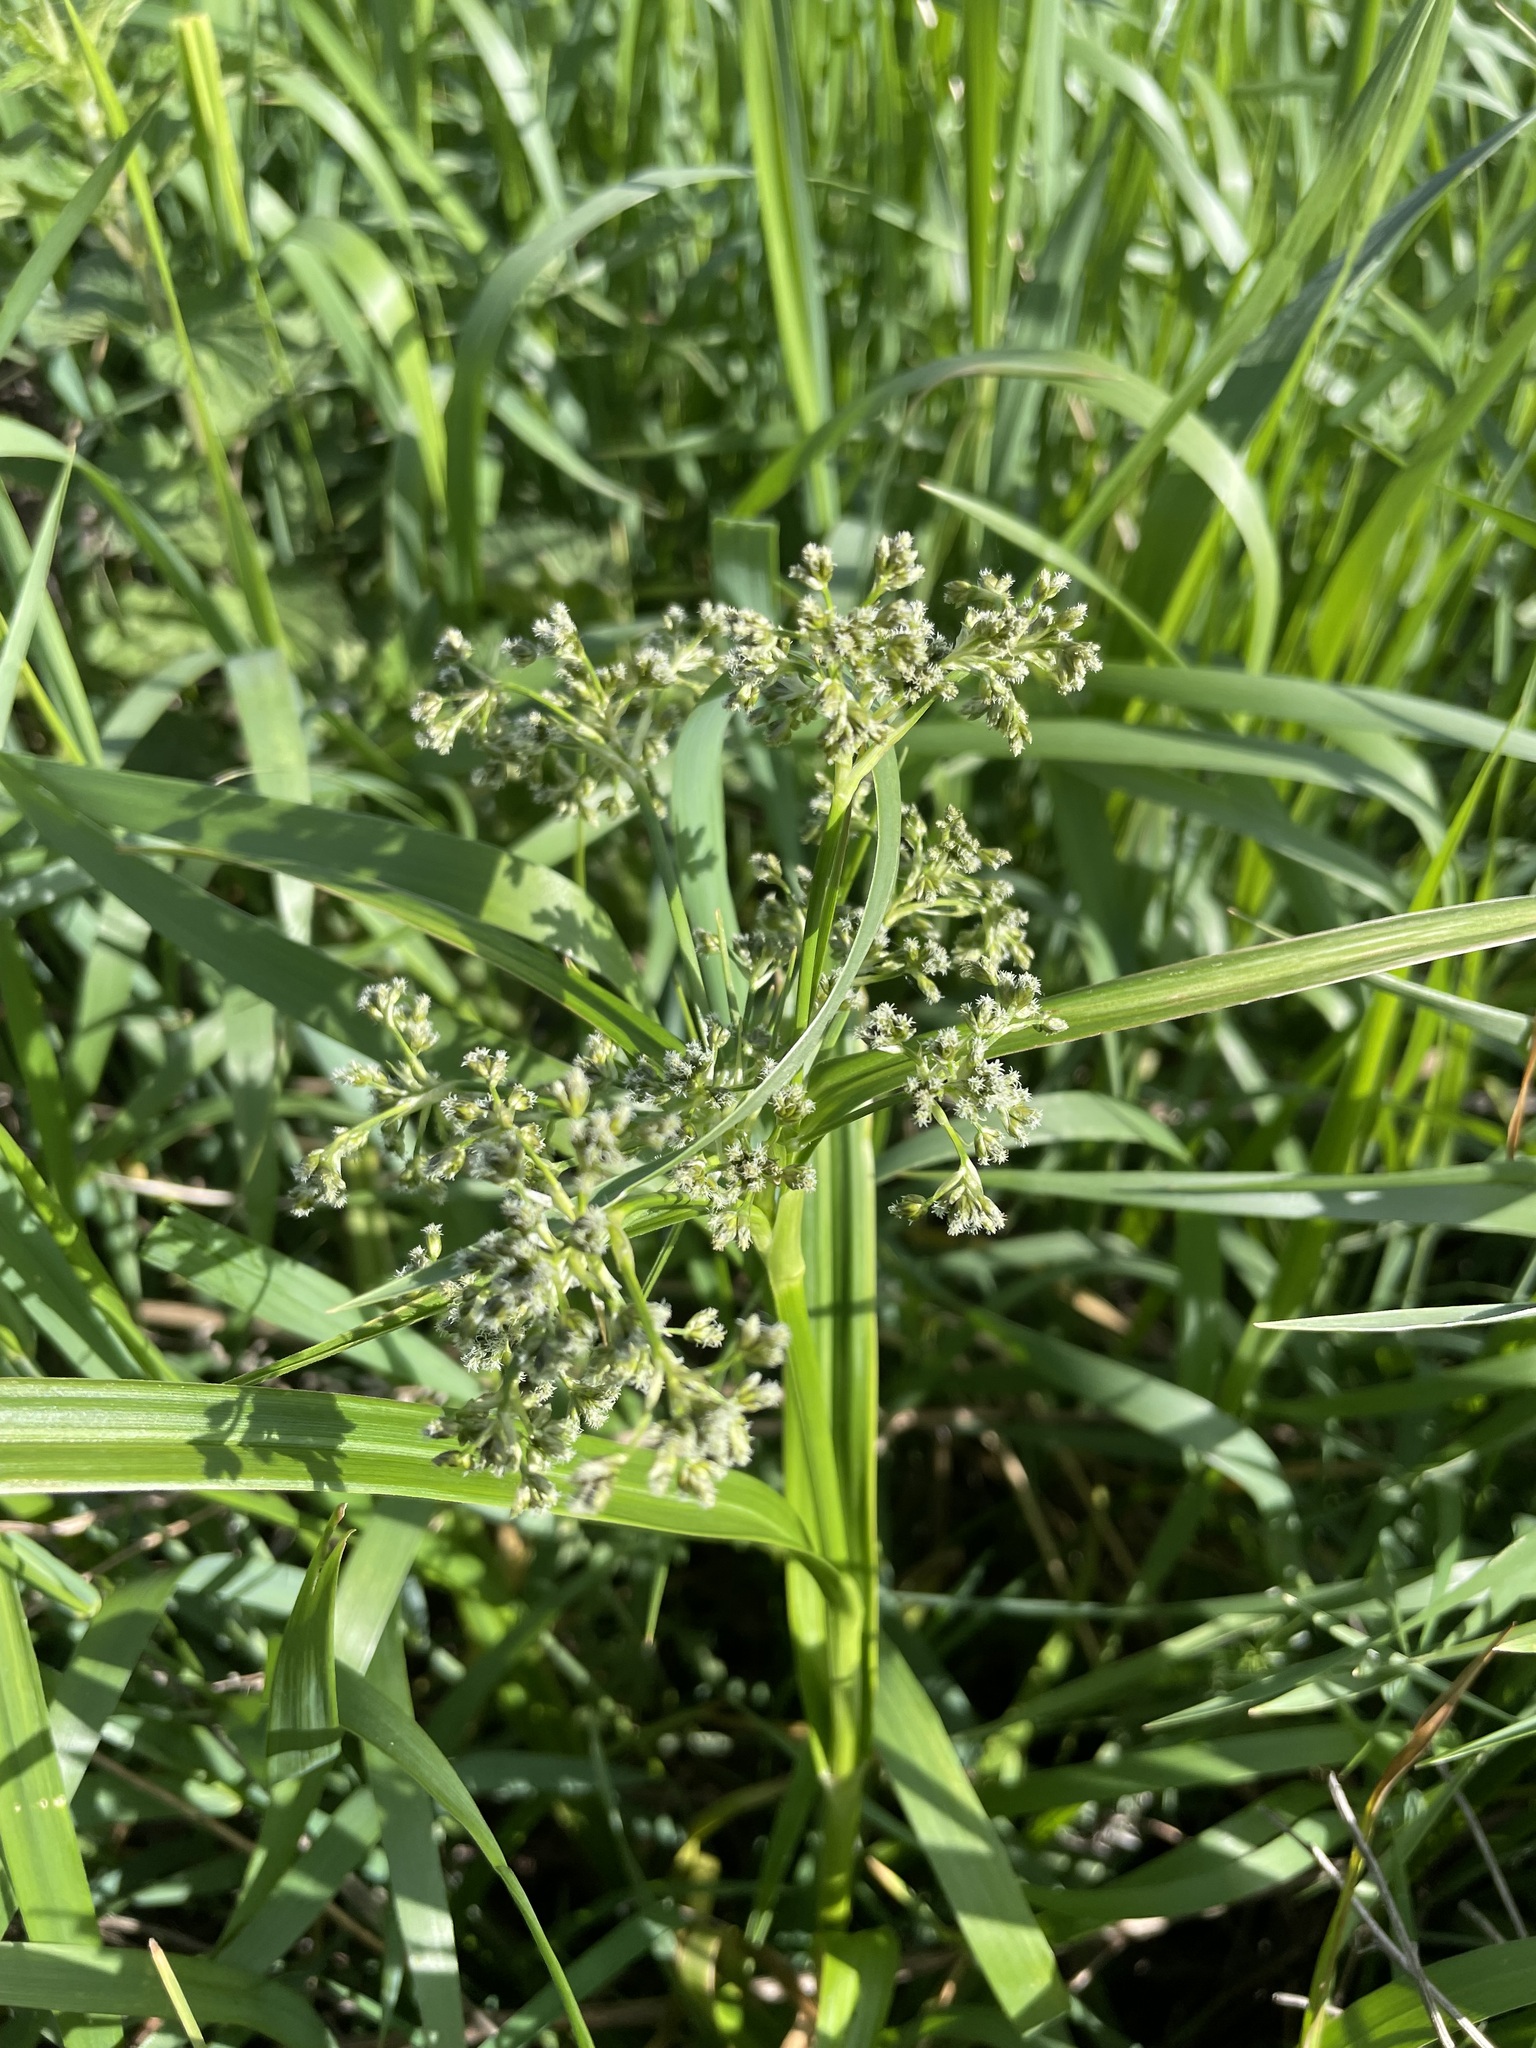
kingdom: Plantae
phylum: Tracheophyta
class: Liliopsida
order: Poales
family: Cyperaceae
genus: Scirpus
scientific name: Scirpus sylvaticus
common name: Wood club-rush
